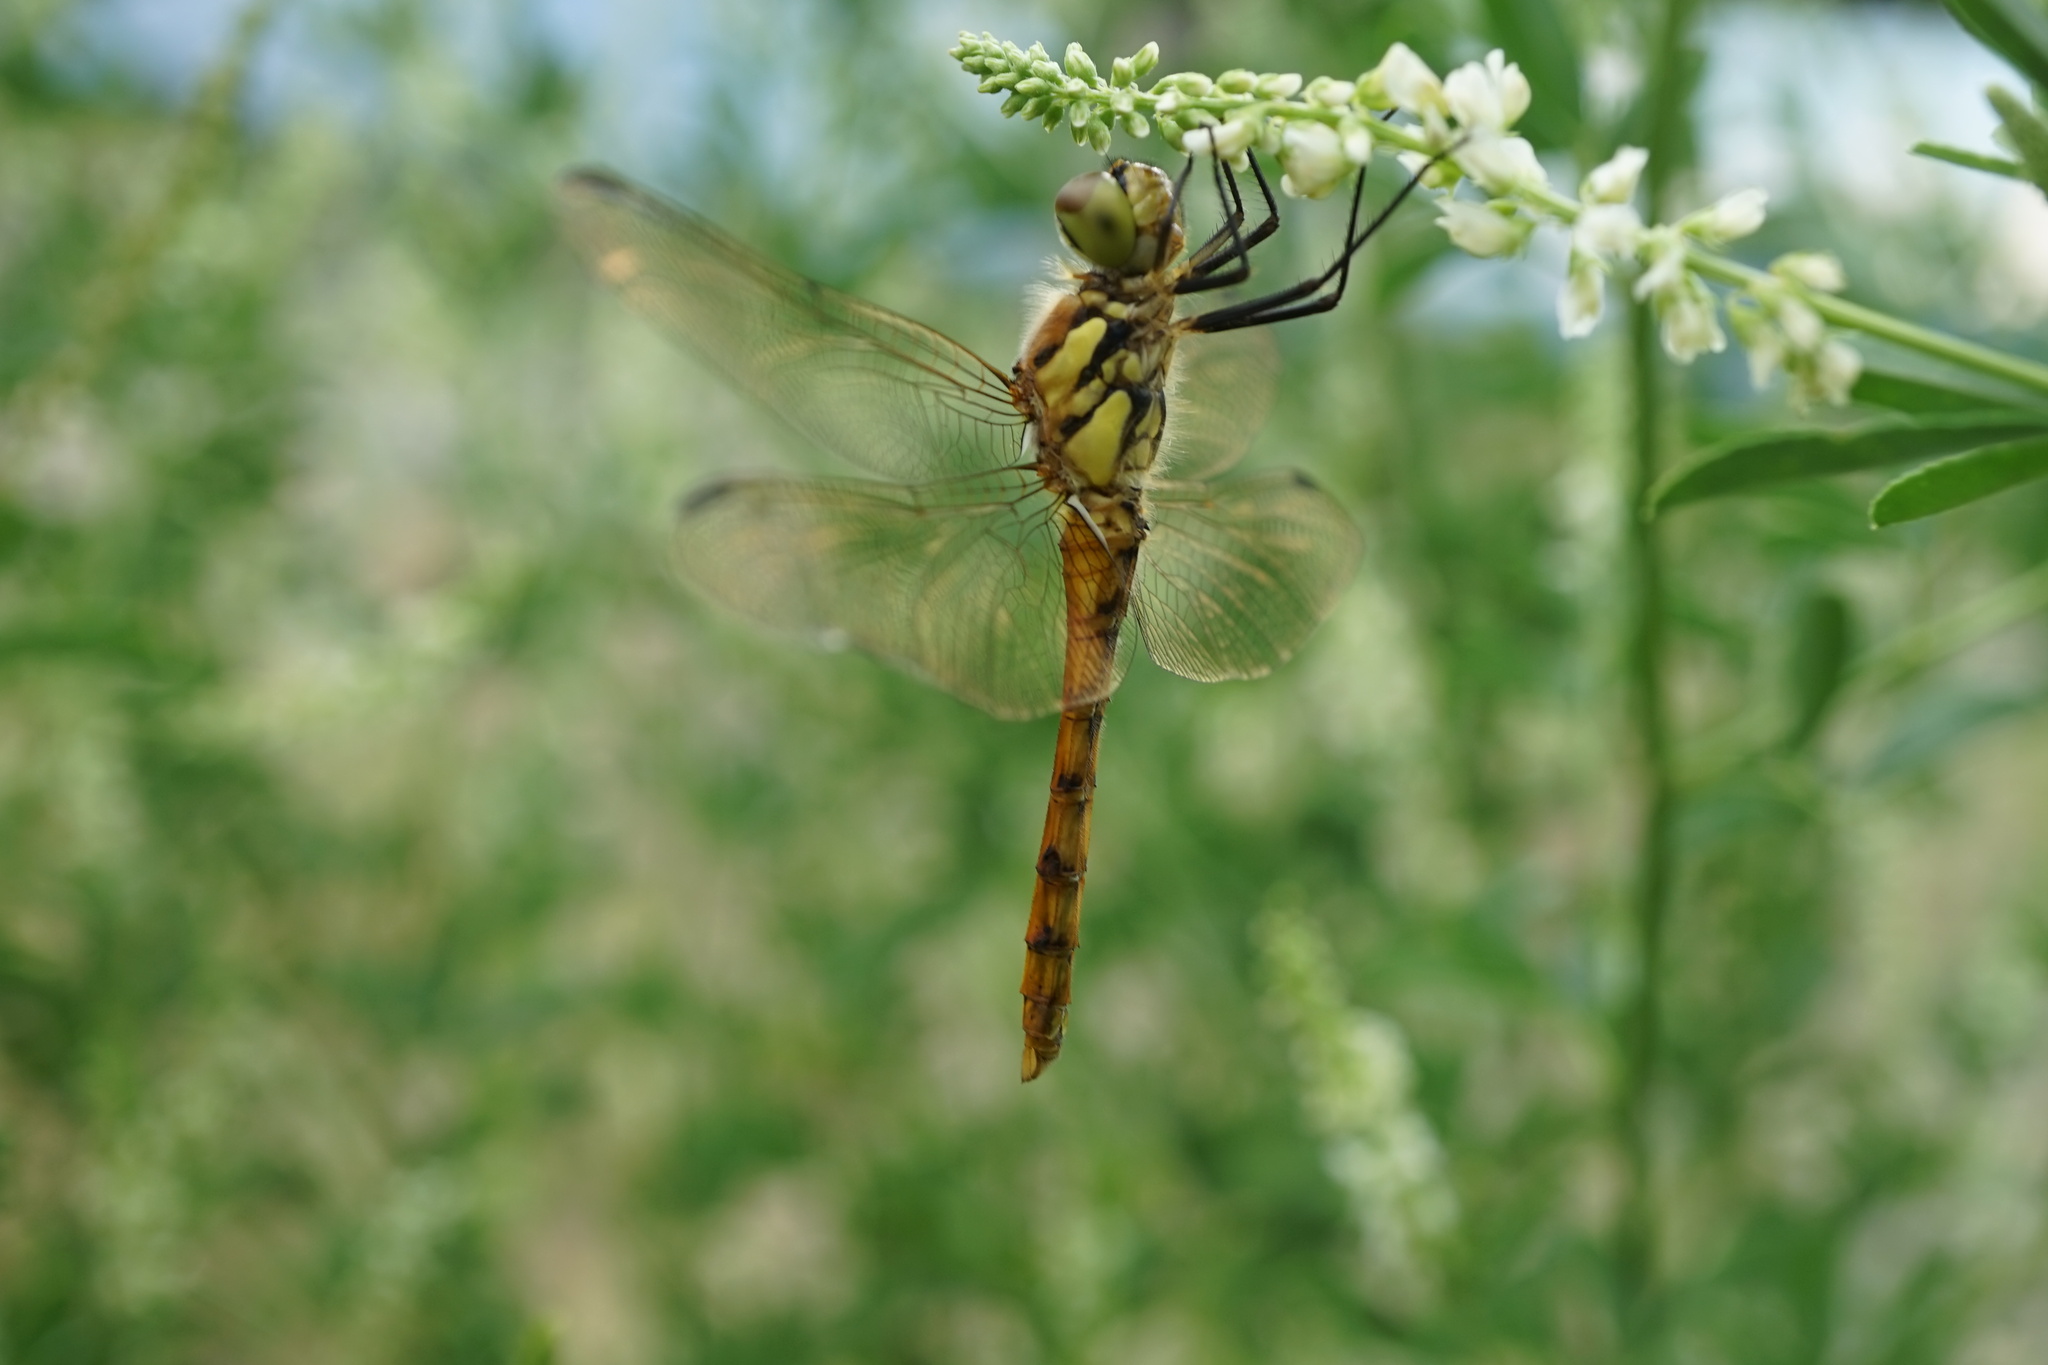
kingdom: Animalia
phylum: Arthropoda
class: Insecta
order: Odonata
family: Libellulidae
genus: Sympetrum
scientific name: Sympetrum frequens
